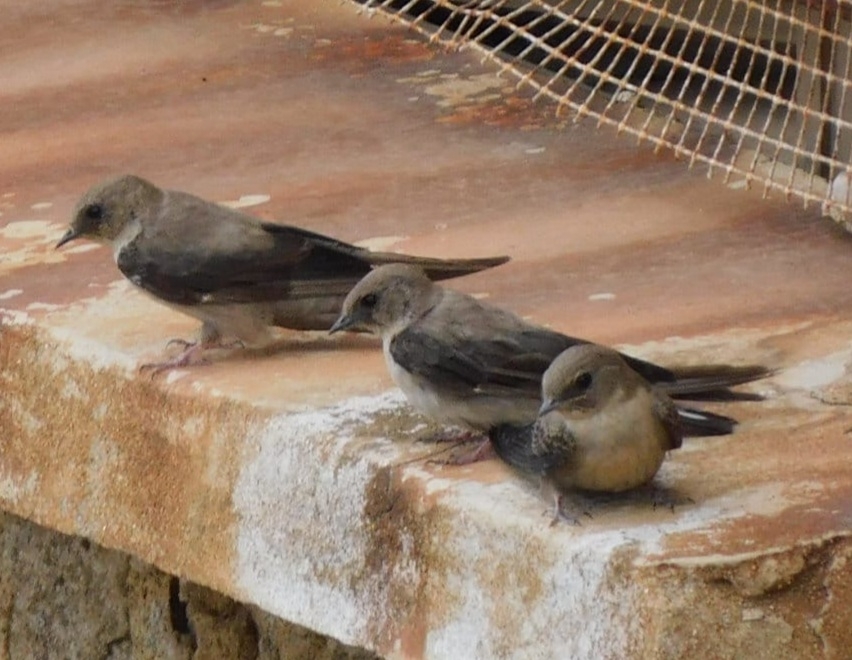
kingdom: Animalia
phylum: Chordata
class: Aves
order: Passeriformes
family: Hirundinidae
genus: Ptyonoprogne
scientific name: Ptyonoprogne rupestris
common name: Eurasian crag martin
